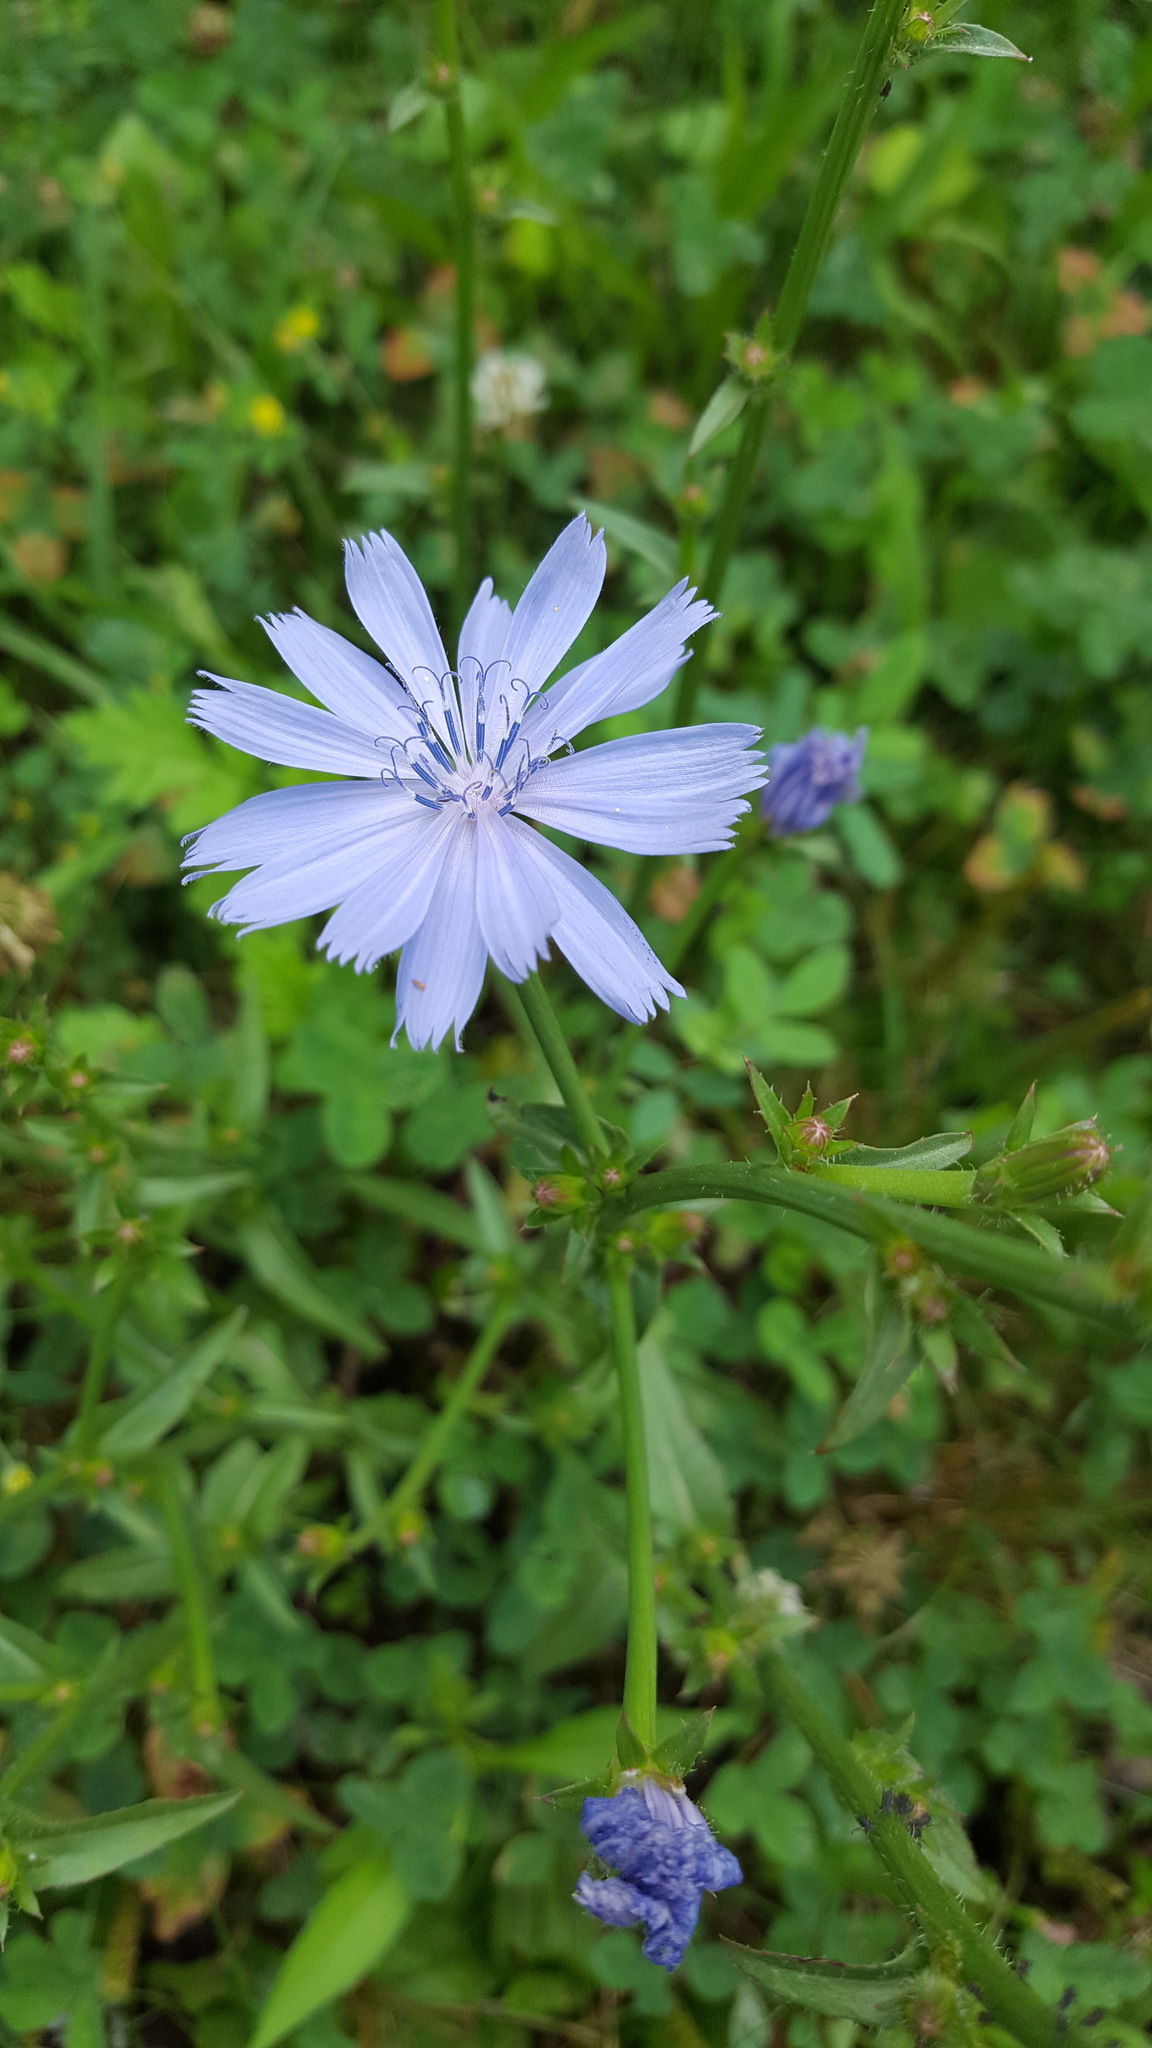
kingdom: Plantae
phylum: Tracheophyta
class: Magnoliopsida
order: Asterales
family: Asteraceae
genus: Cichorium
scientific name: Cichorium intybus
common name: Chicory
